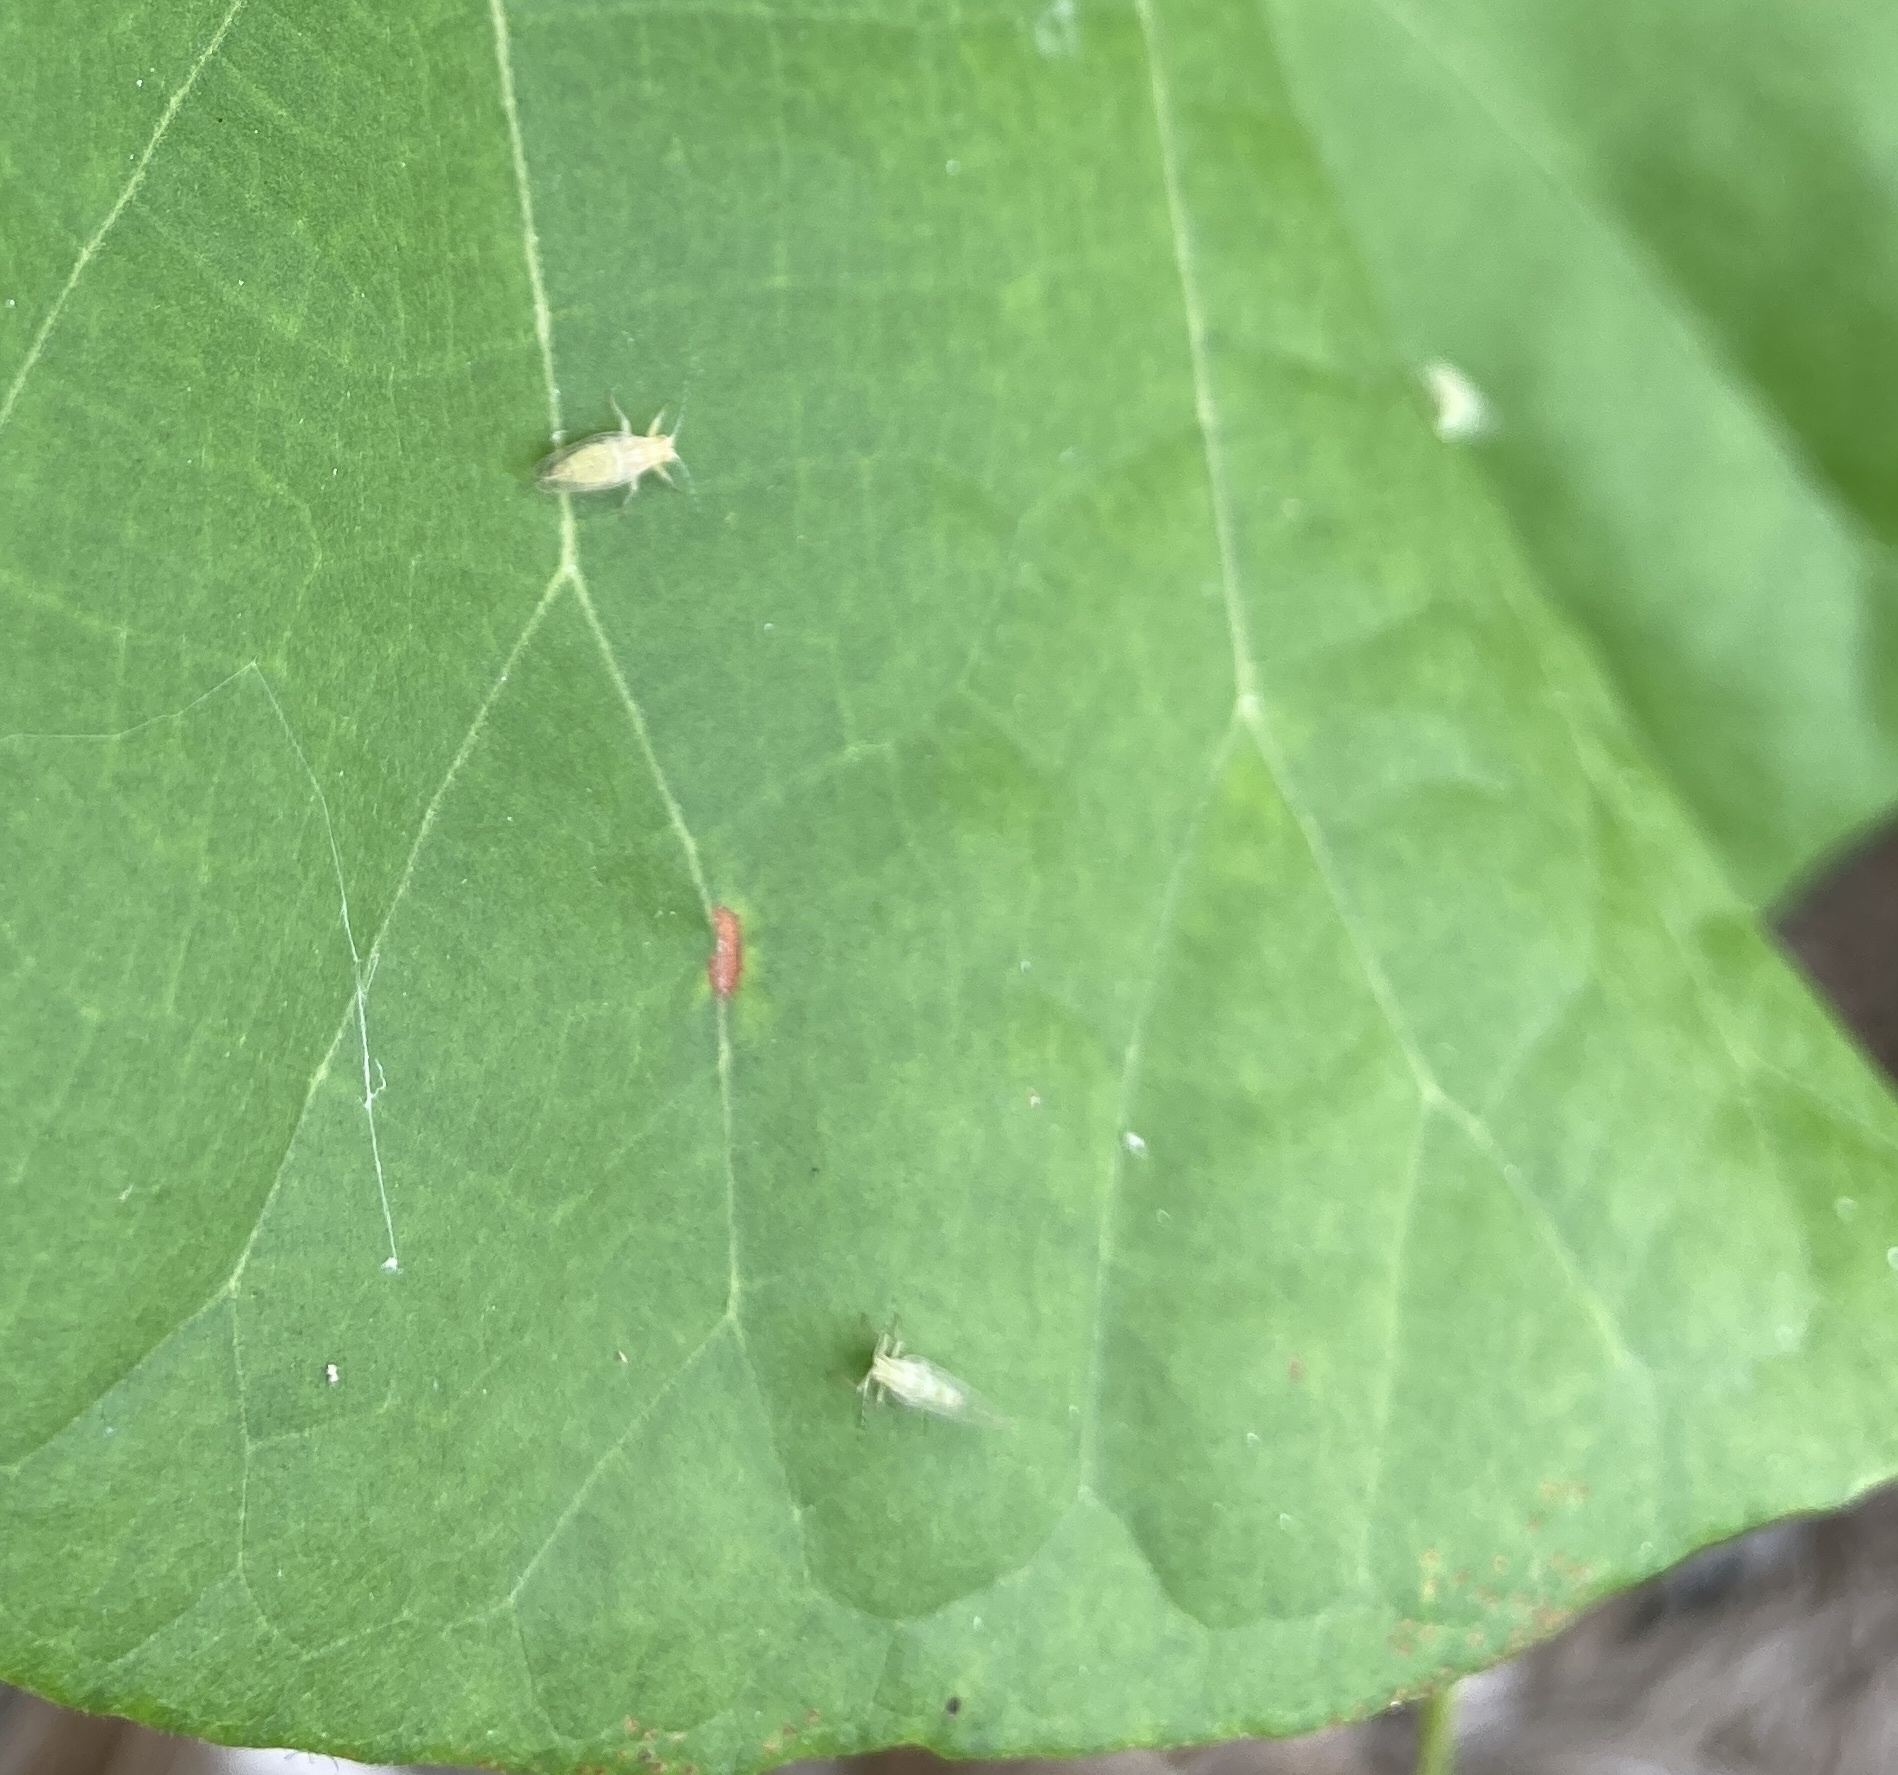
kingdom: Animalia
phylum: Arthropoda
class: Insecta
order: Hemiptera
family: Carsidaridae
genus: Mesohomotoma
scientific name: Mesohomotoma hibisci
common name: Psyllid
